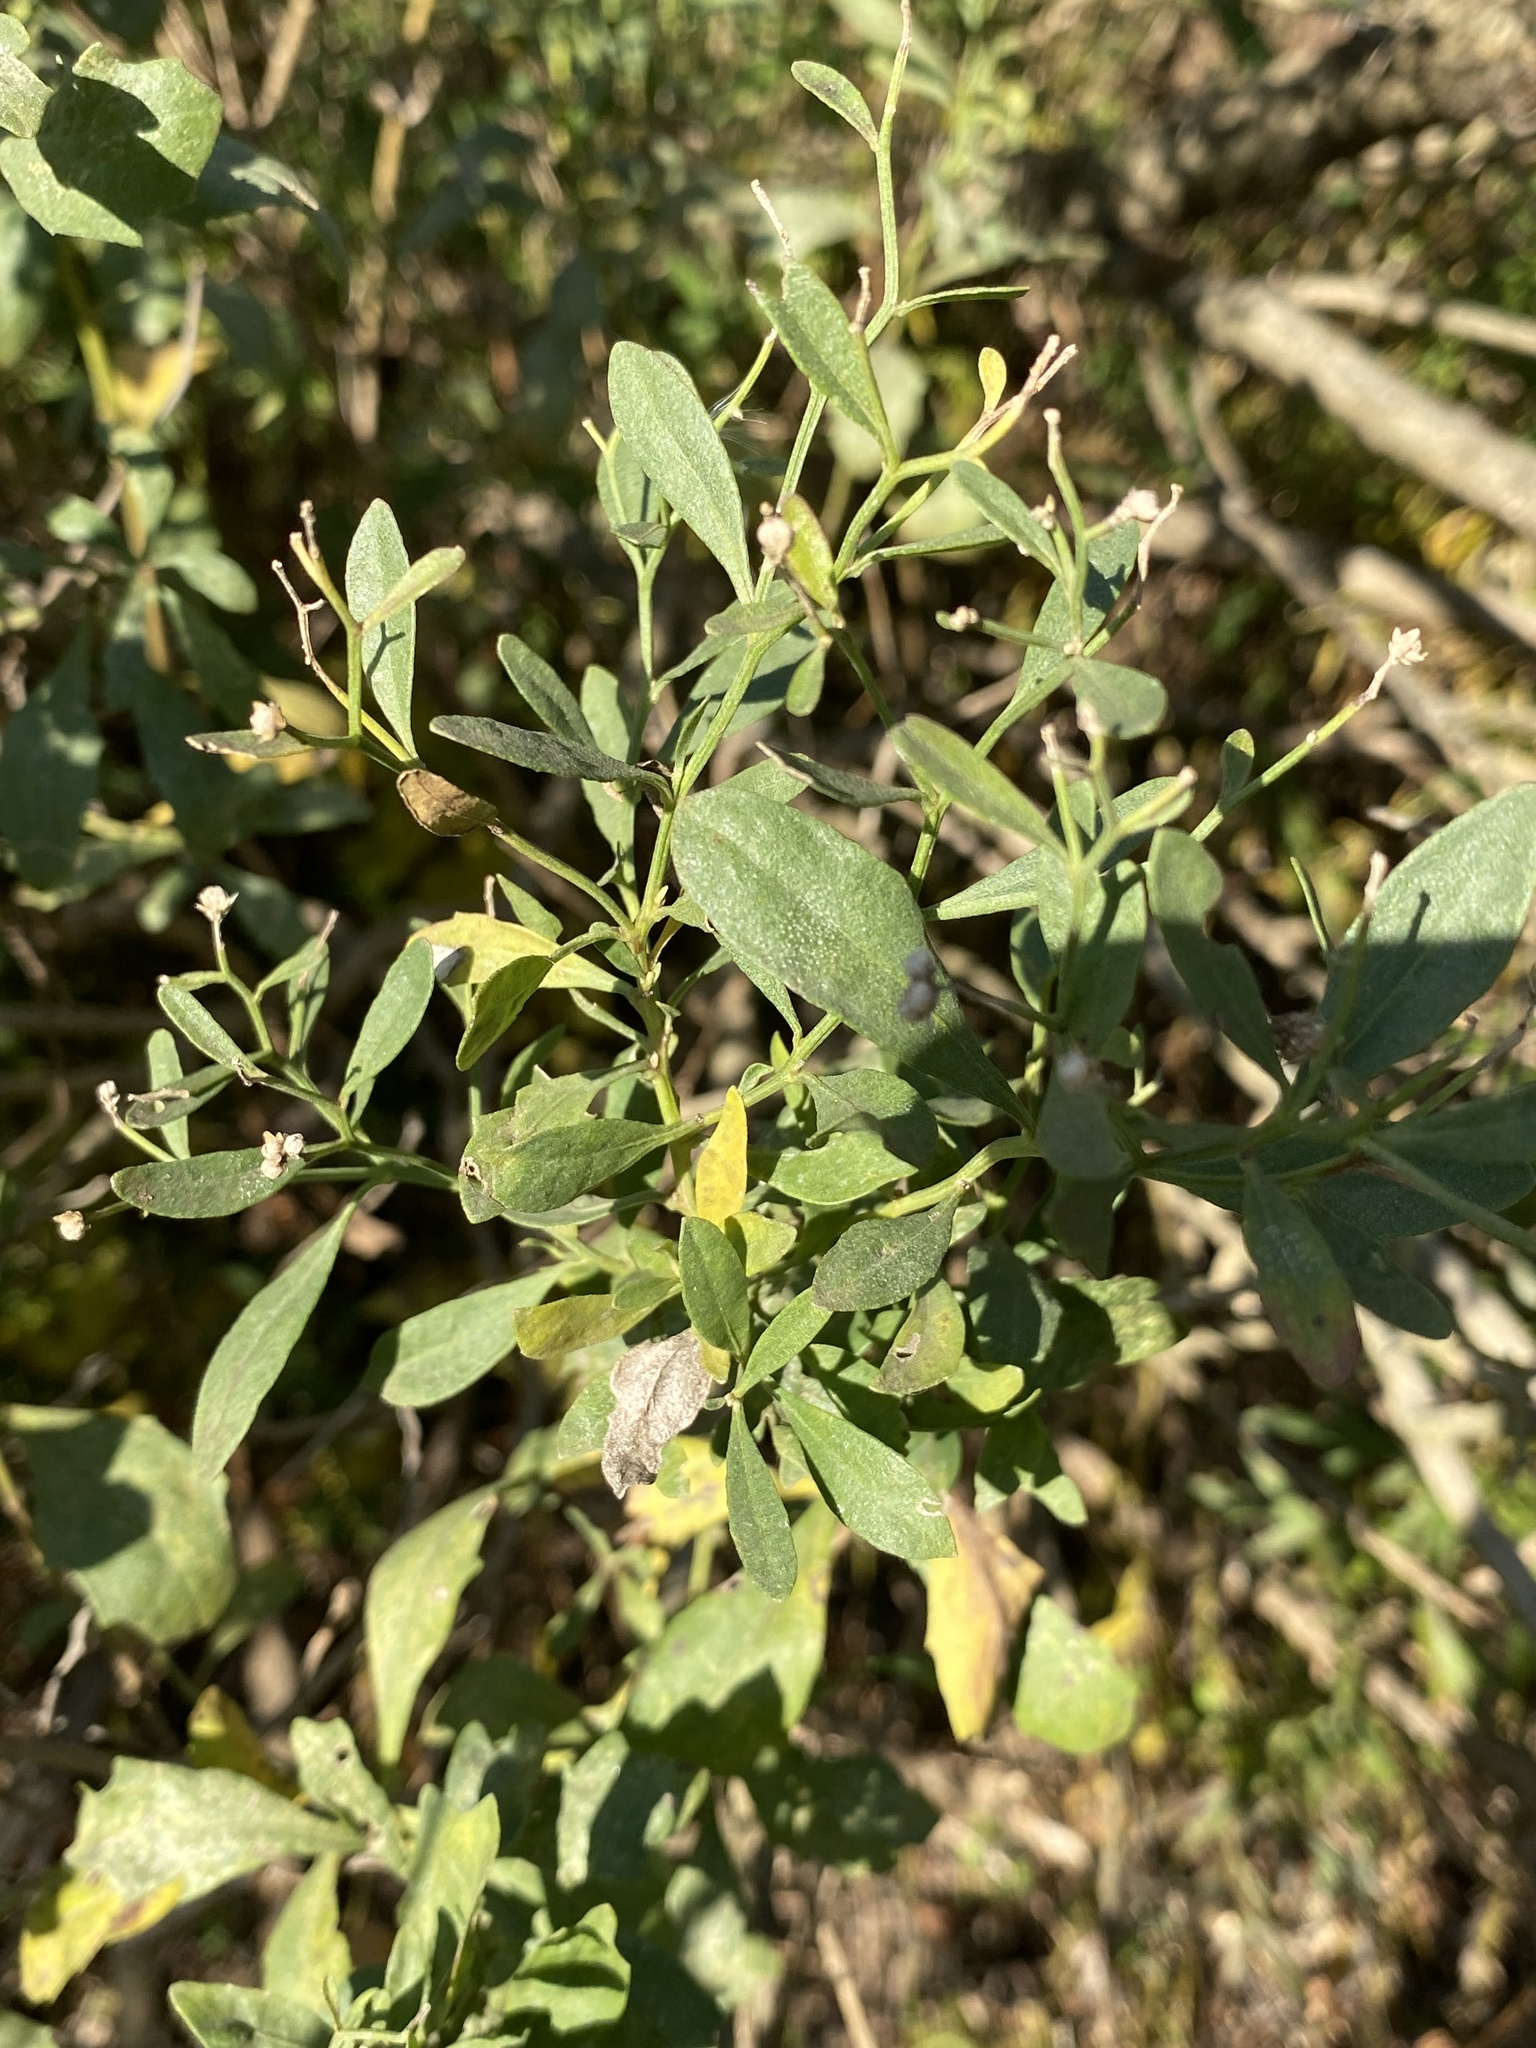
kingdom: Plantae
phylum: Tracheophyta
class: Magnoliopsida
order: Asterales
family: Asteraceae
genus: Baccharis
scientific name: Baccharis halimifolia
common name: Eastern baccharis
